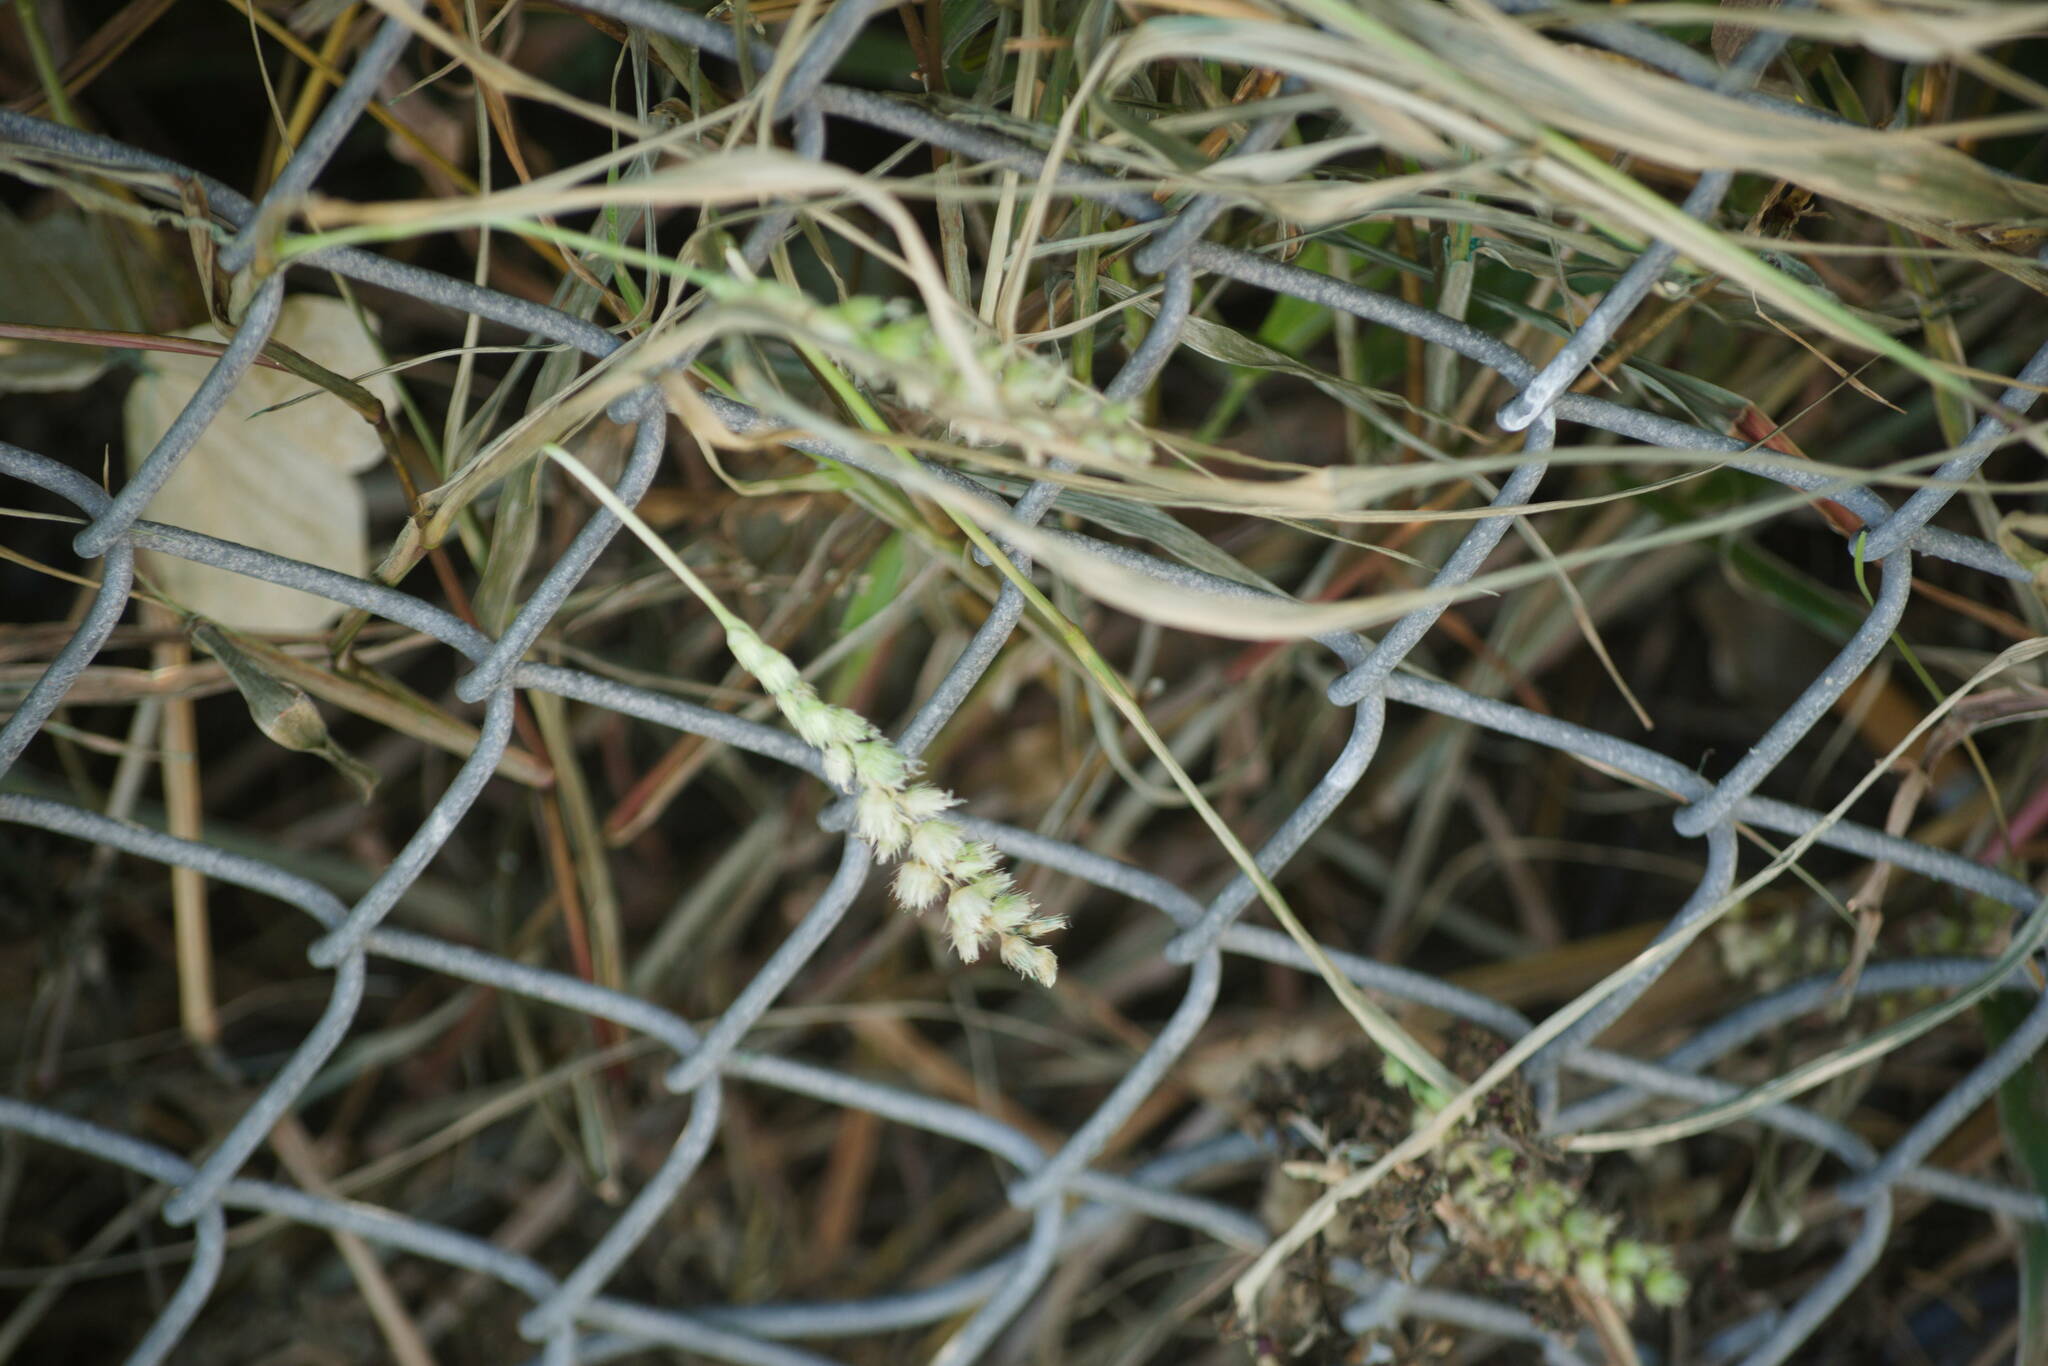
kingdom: Plantae
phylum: Tracheophyta
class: Liliopsida
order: Poales
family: Poaceae
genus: Cenchrus
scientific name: Cenchrus echinatus
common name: Southern sandbur
